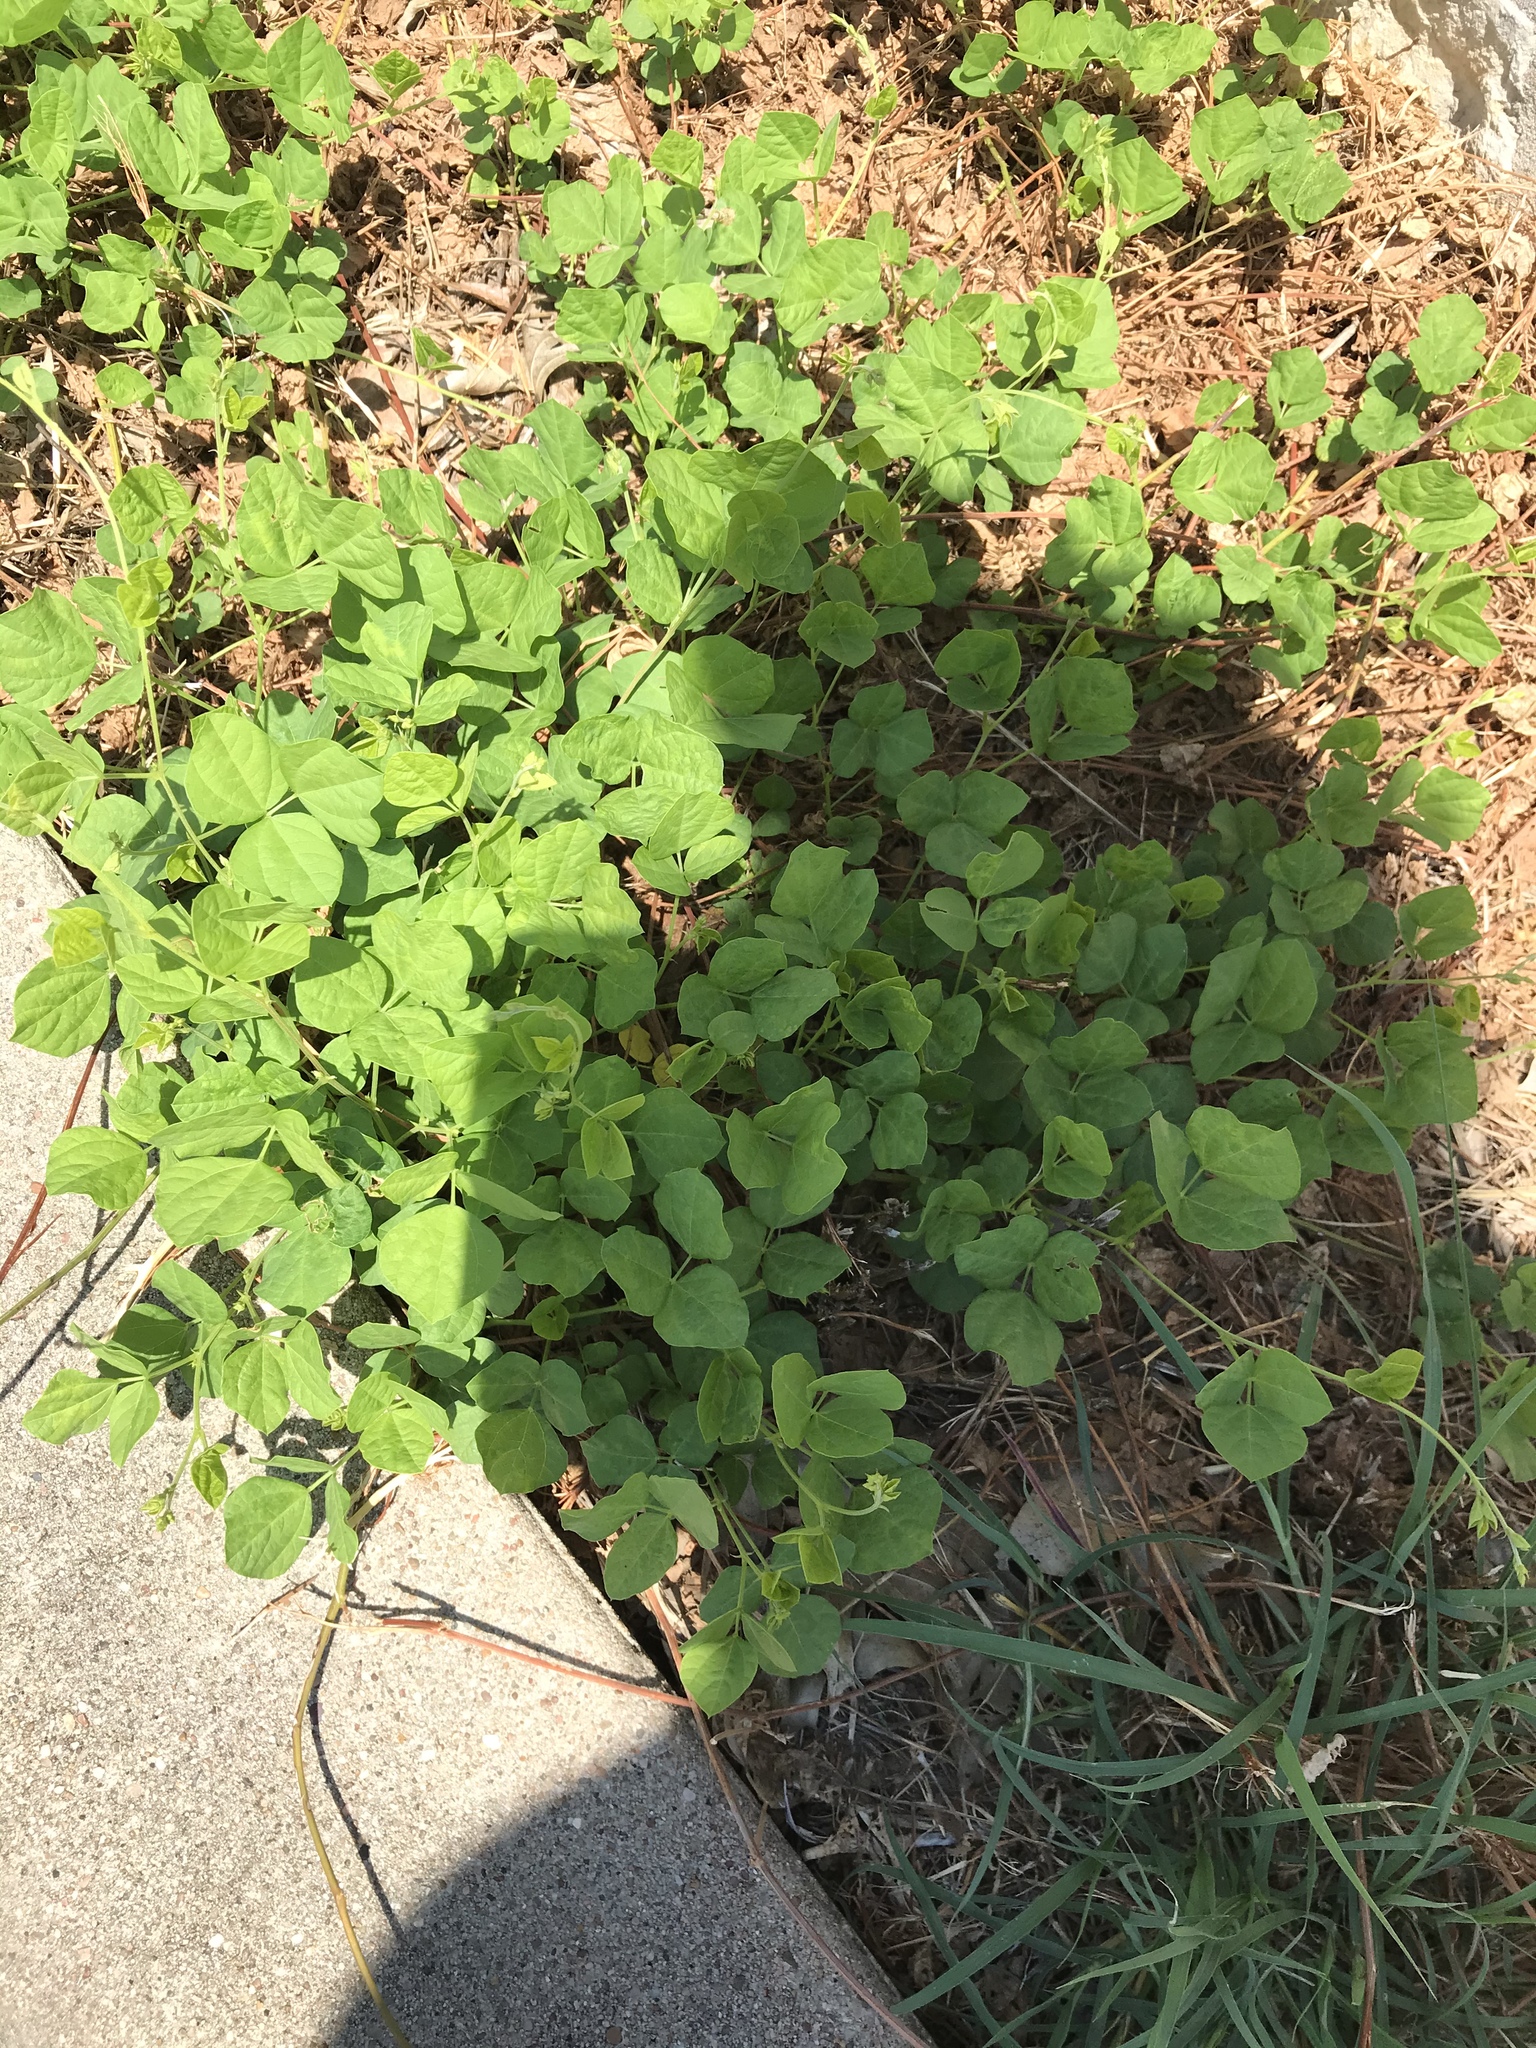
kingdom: Plantae
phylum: Tracheophyta
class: Magnoliopsida
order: Fabales
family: Fabaceae
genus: Rhynchosia
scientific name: Rhynchosia minima
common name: Least snoutbean
